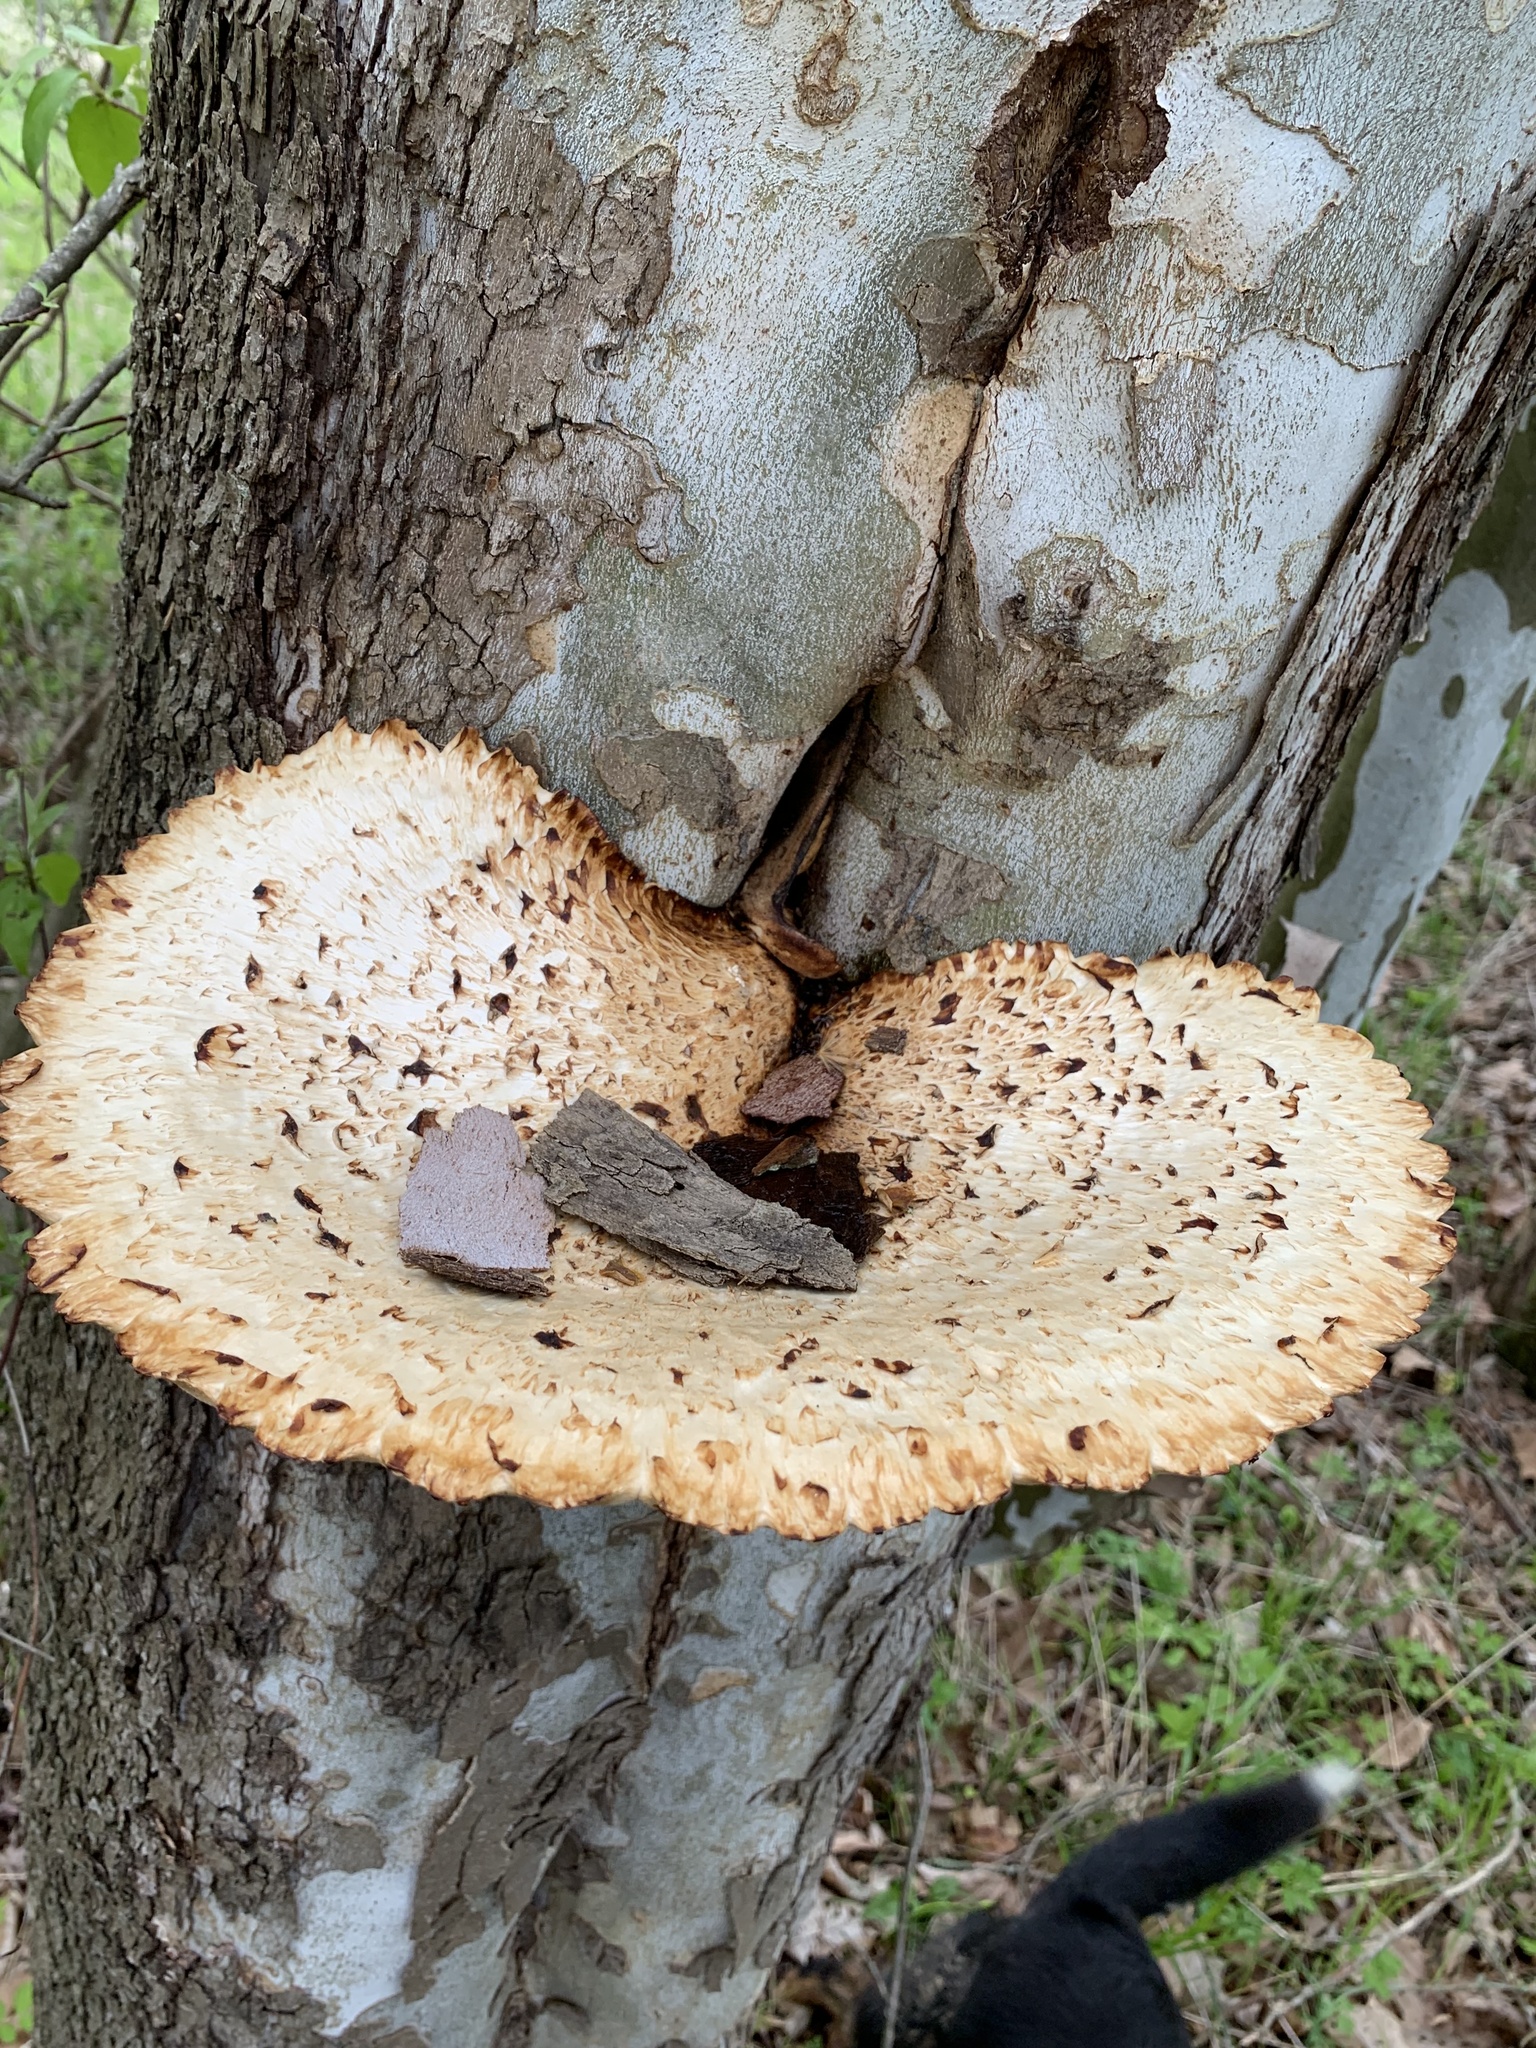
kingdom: Fungi
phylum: Basidiomycota
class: Agaricomycetes
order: Polyporales
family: Polyporaceae
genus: Cerioporus
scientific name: Cerioporus squamosus
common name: Dryad's saddle
